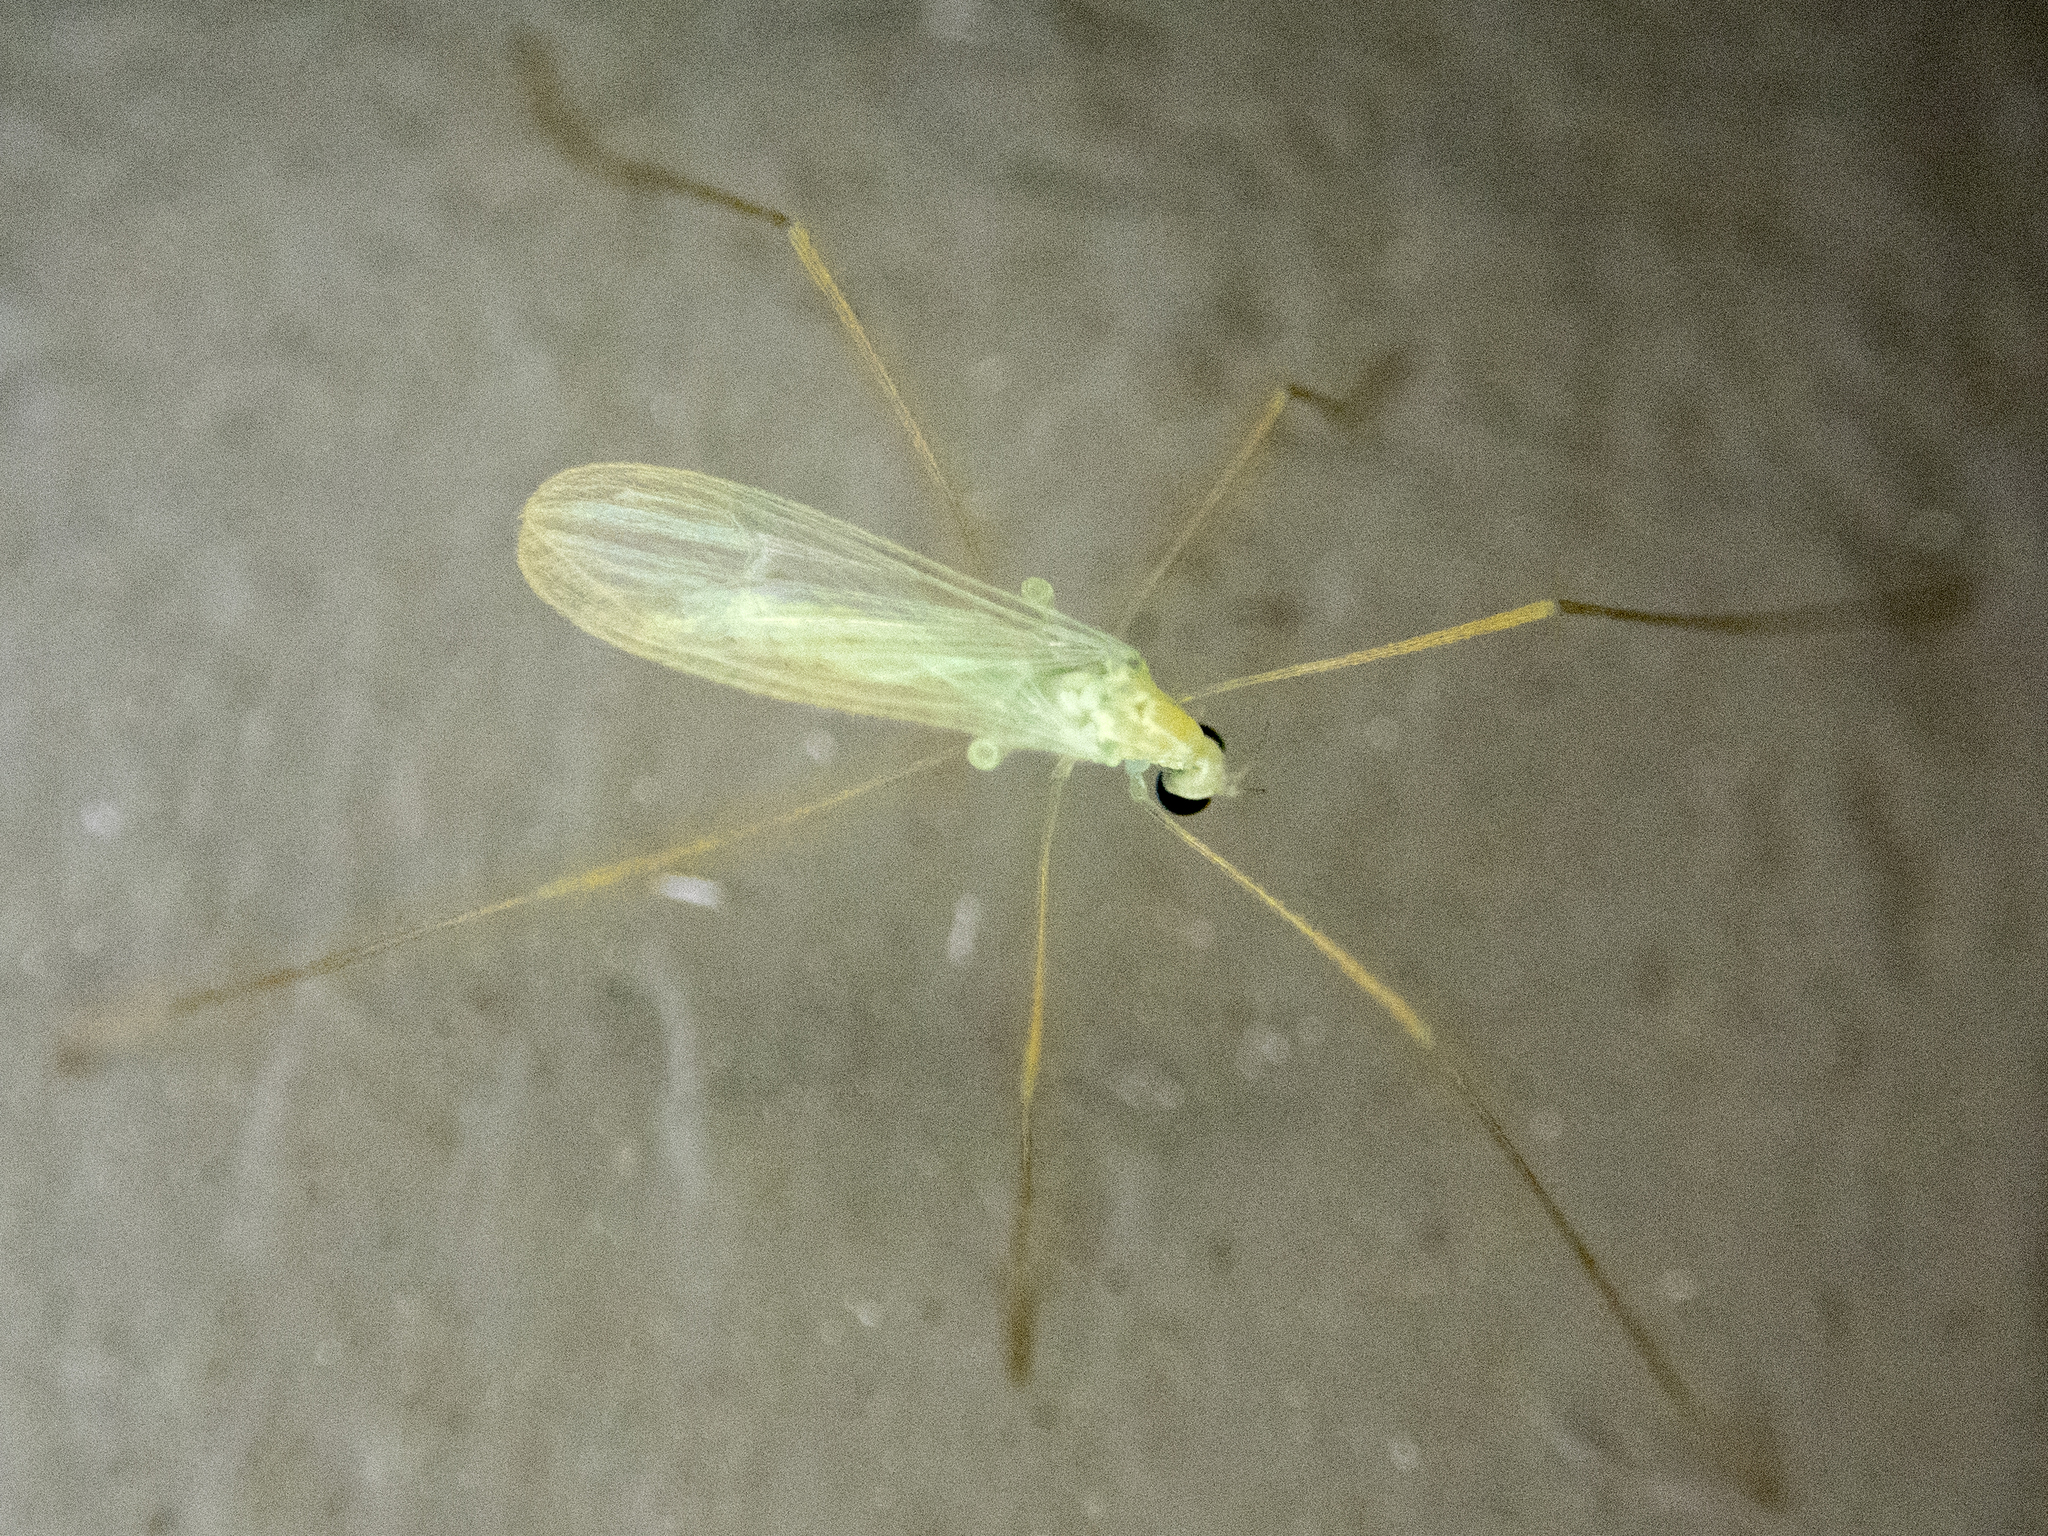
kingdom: Animalia
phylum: Arthropoda
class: Insecta
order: Diptera
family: Limoniidae
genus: Erioptera
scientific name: Erioptera
